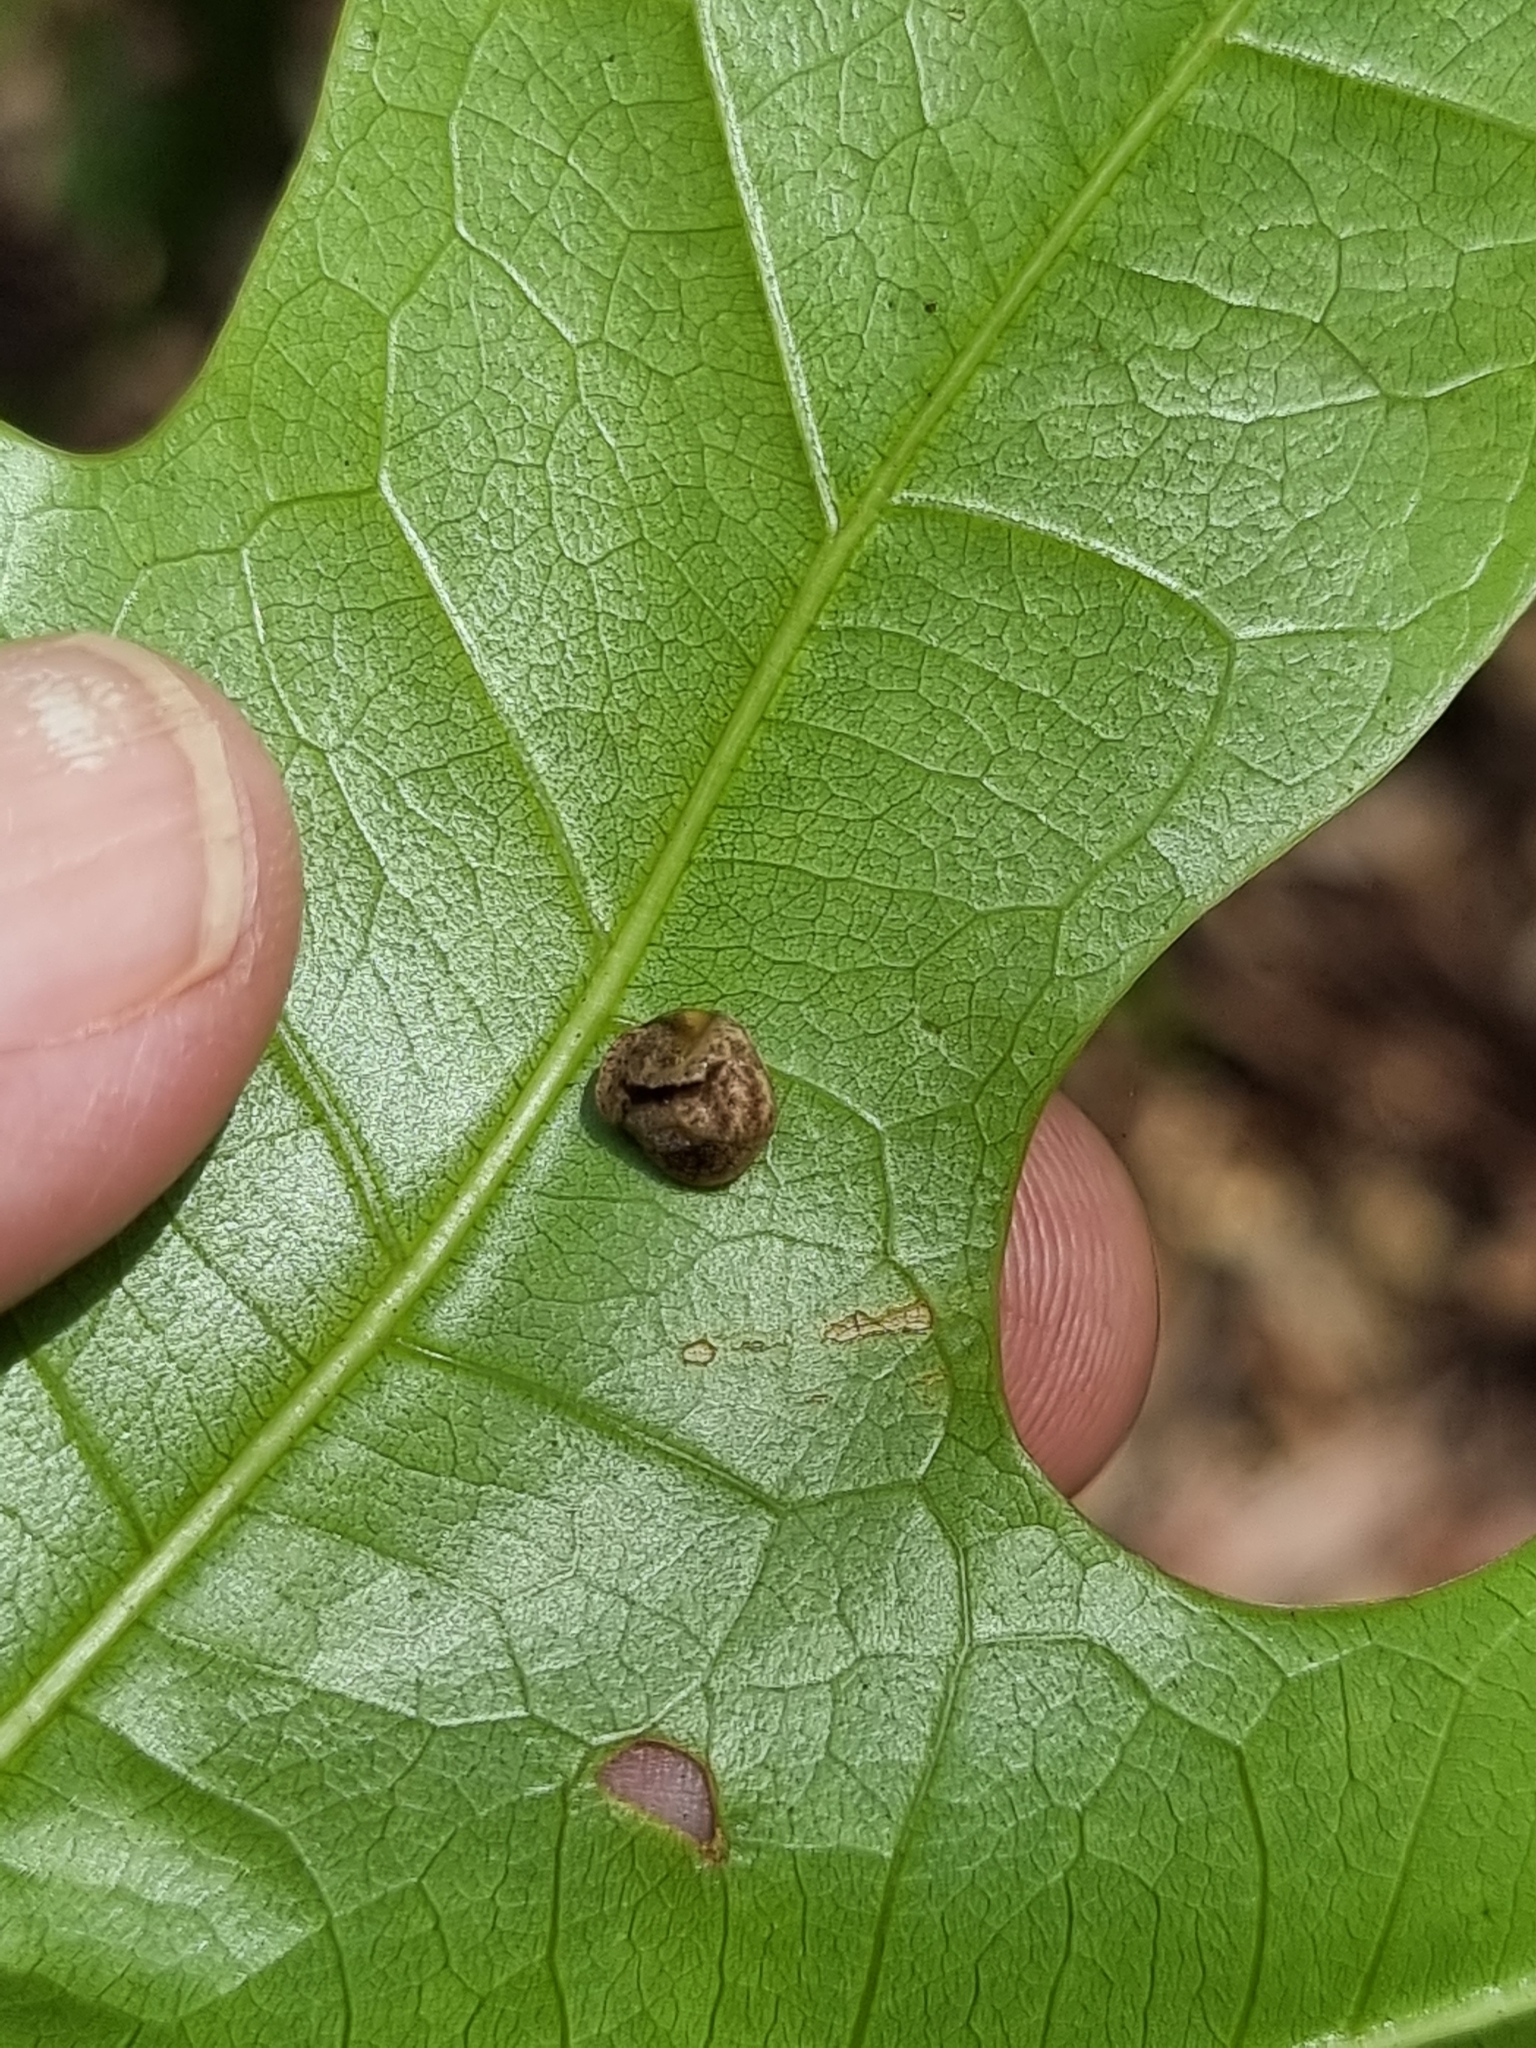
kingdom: Animalia
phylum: Mollusca
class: Gastropoda
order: Stylommatophora
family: Helicarionidae
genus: Ubiquitarion
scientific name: Ubiquitarion iridis
